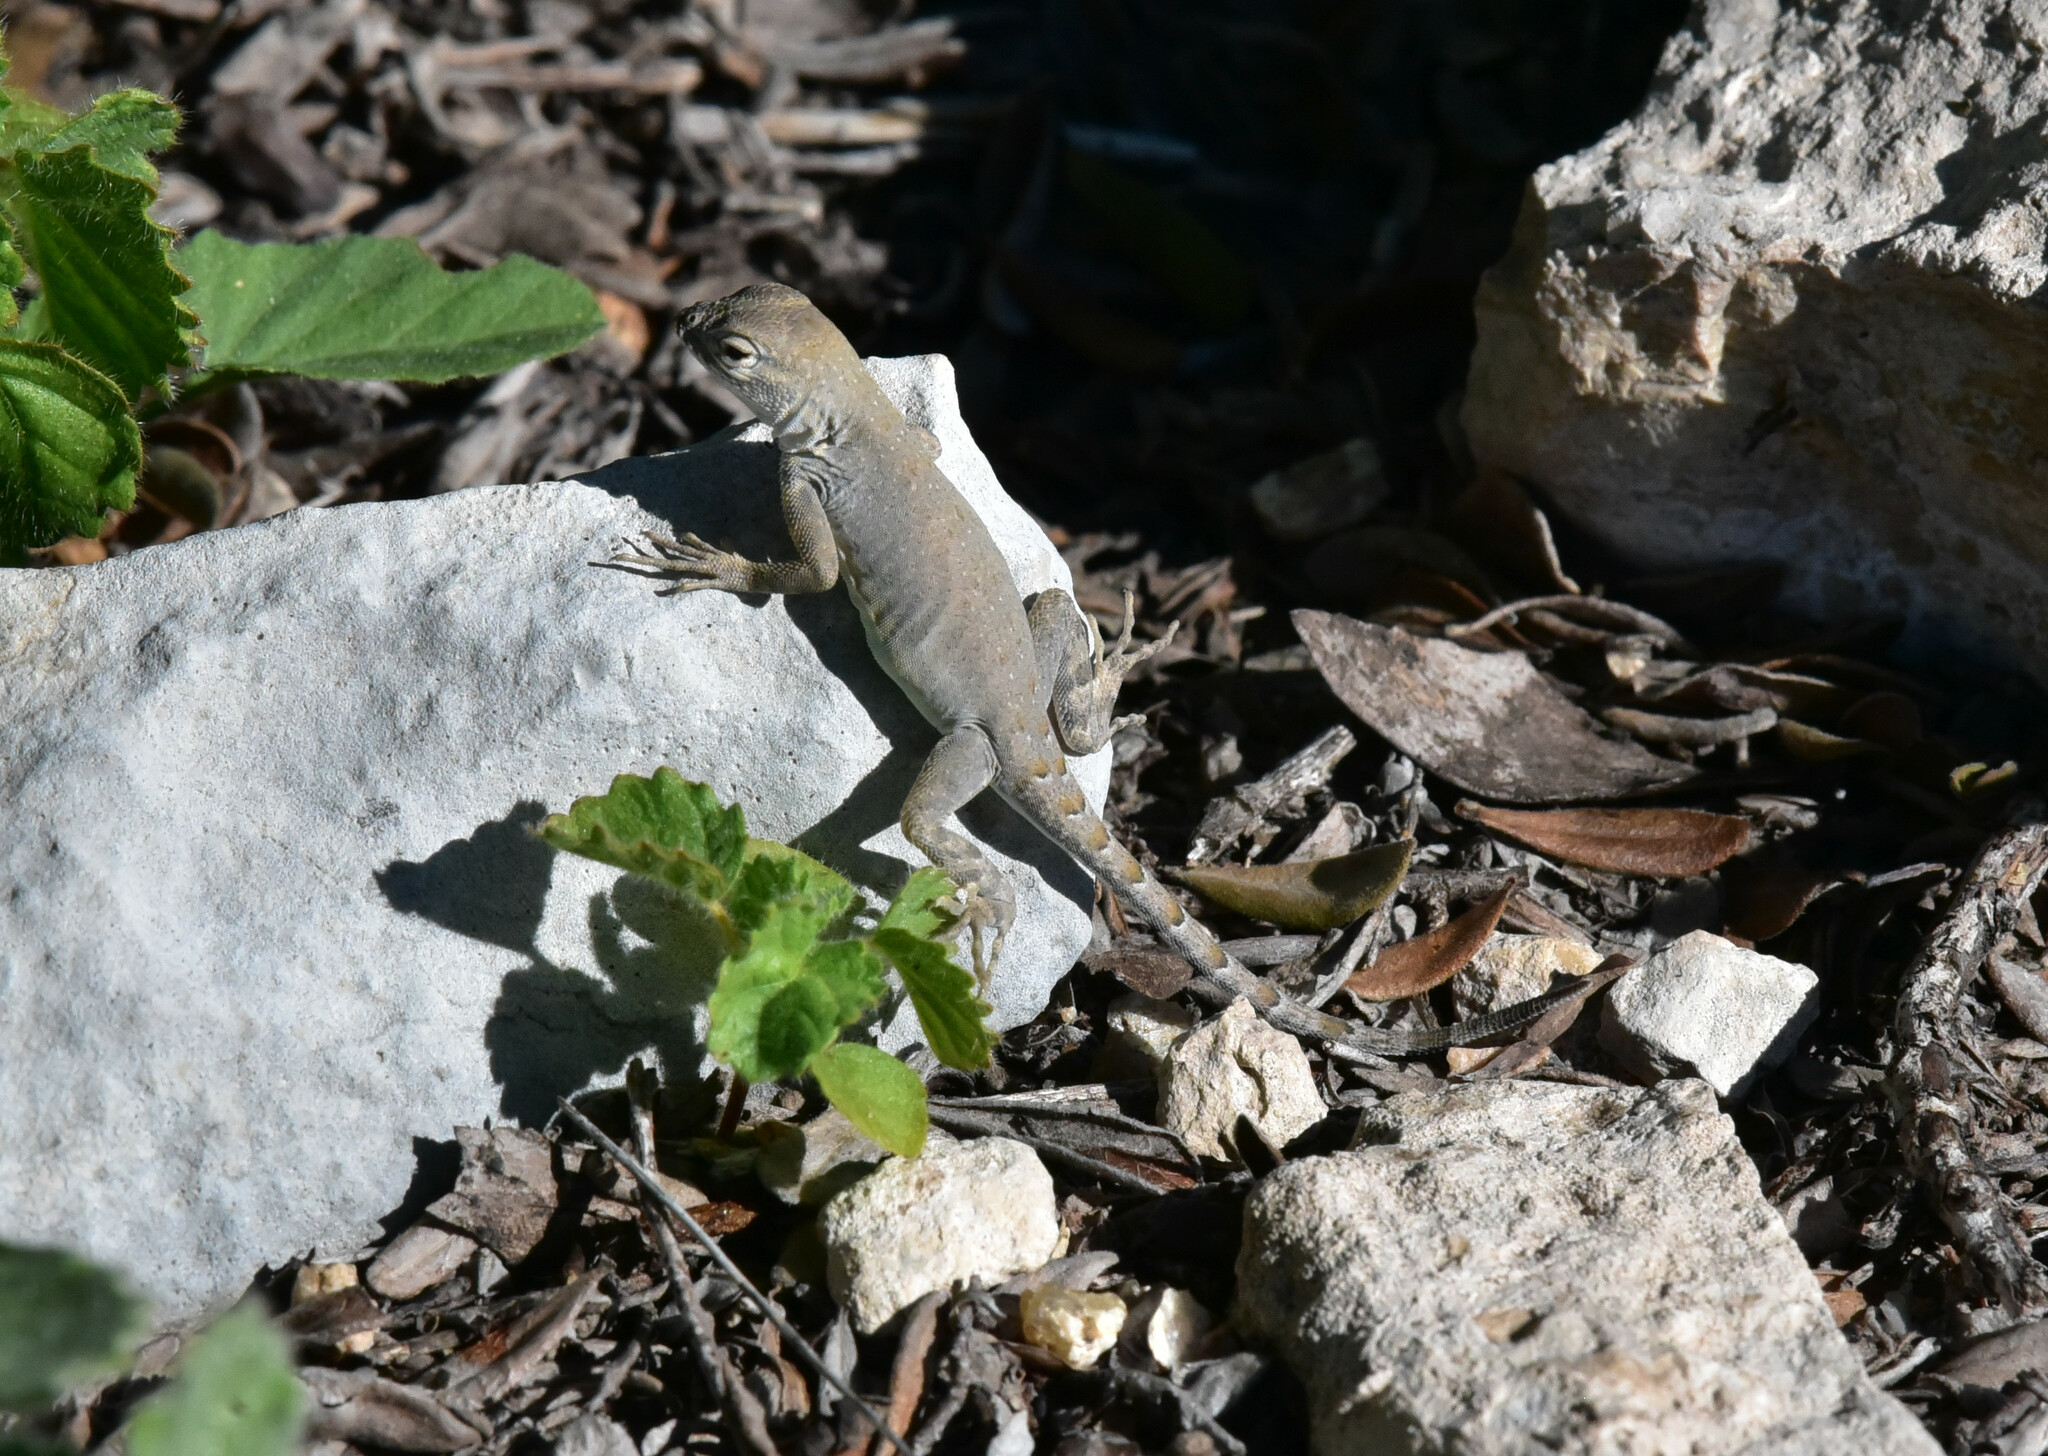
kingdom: Animalia
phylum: Chordata
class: Squamata
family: Phrynosomatidae
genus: Cophosaurus
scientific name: Cophosaurus texanus
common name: Greater earless lizard
